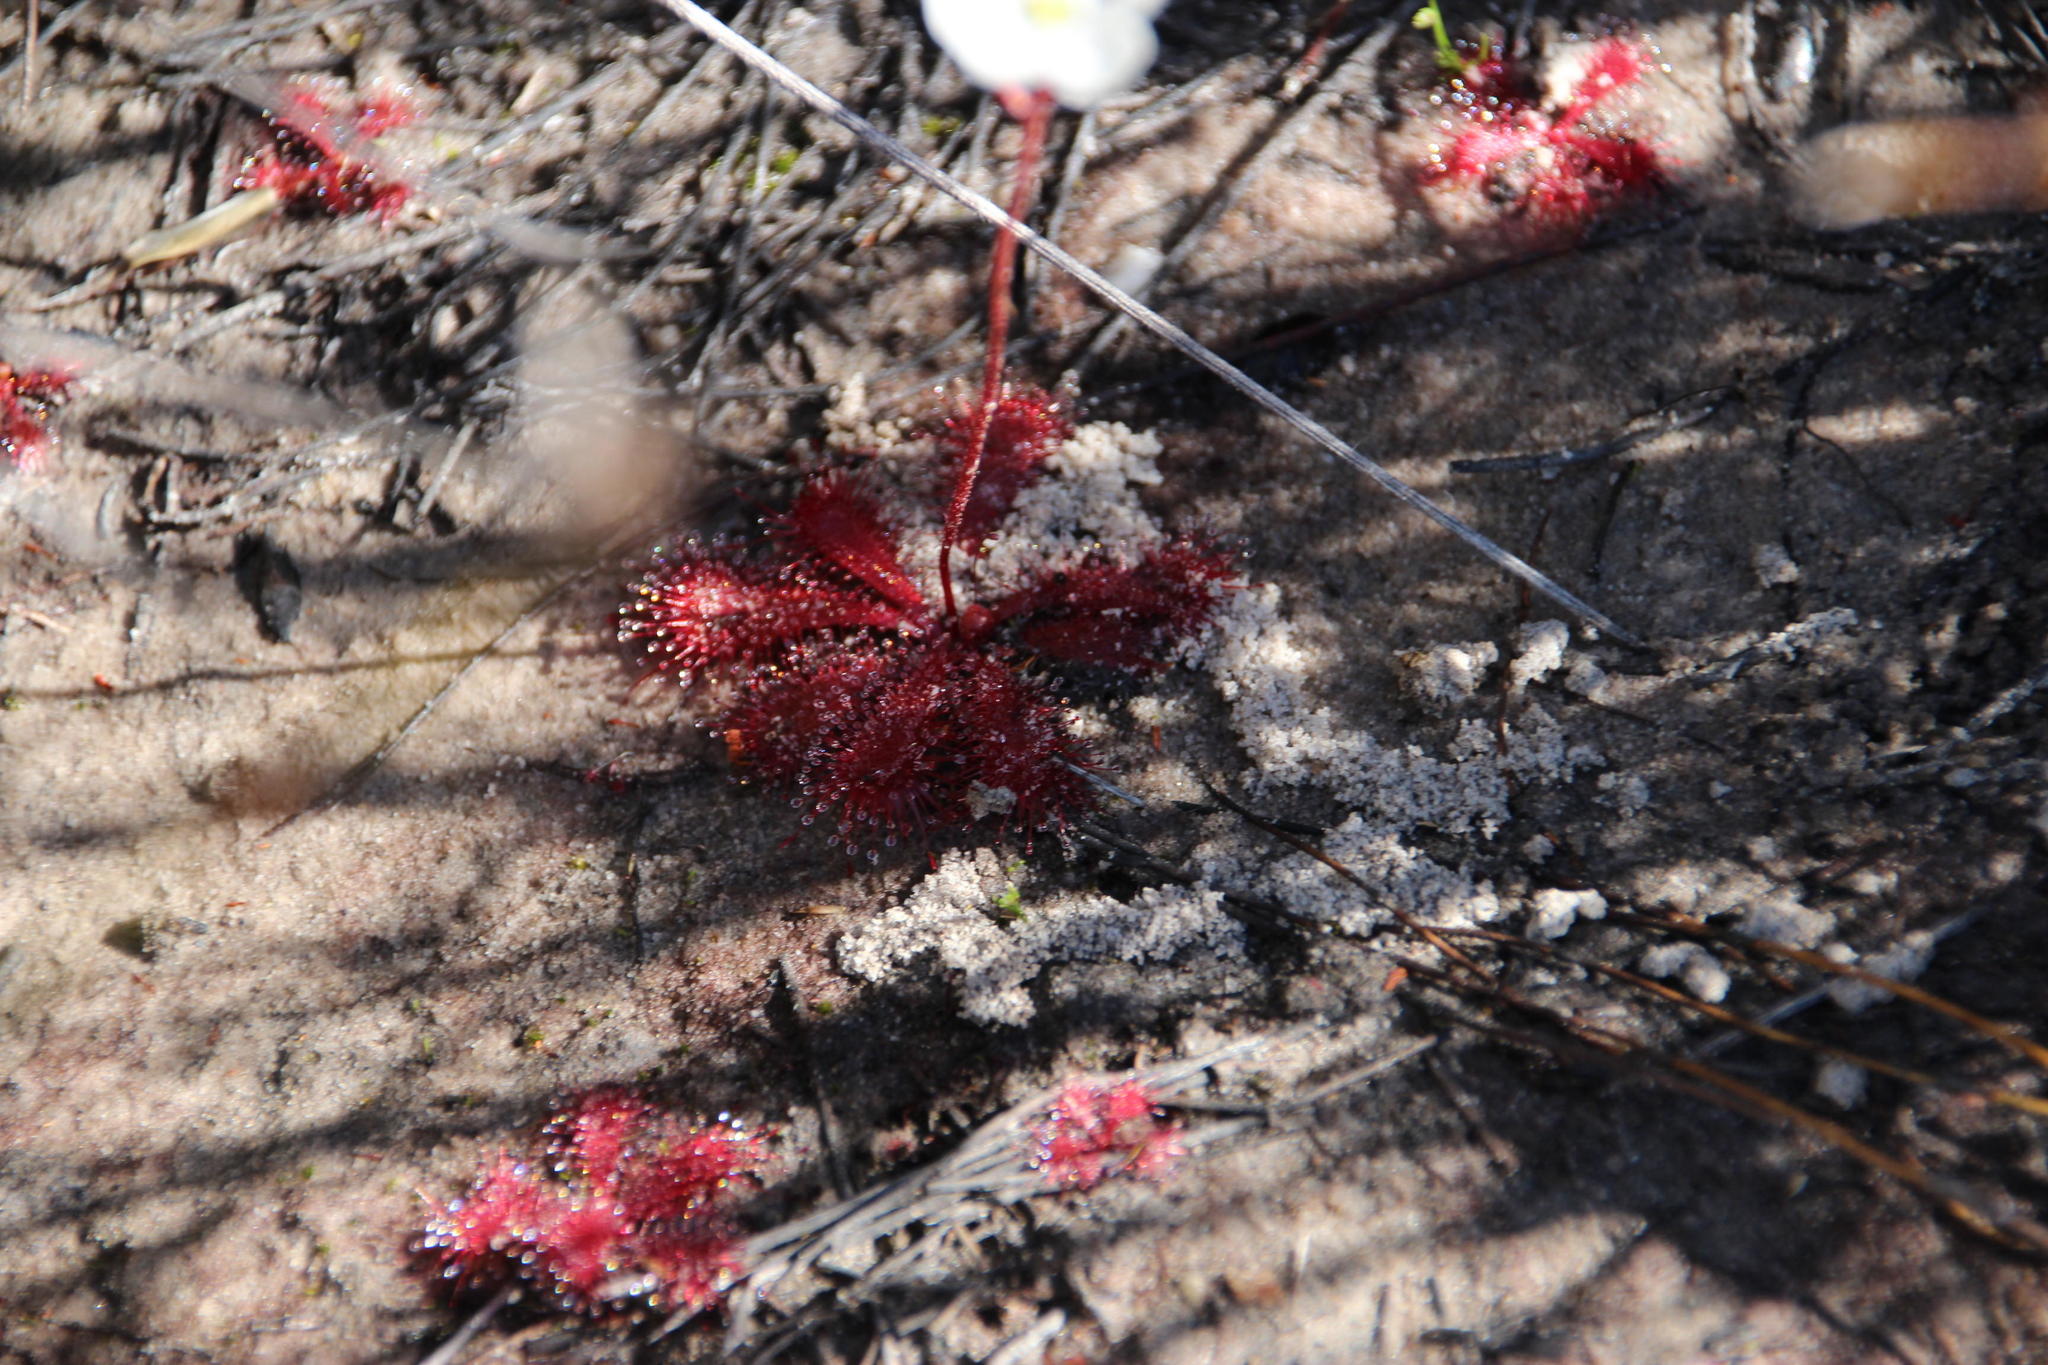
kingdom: Plantae
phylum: Tracheophyta
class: Magnoliopsida
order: Caryophyllales
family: Droseraceae
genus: Drosera
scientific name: Drosera trinervia
